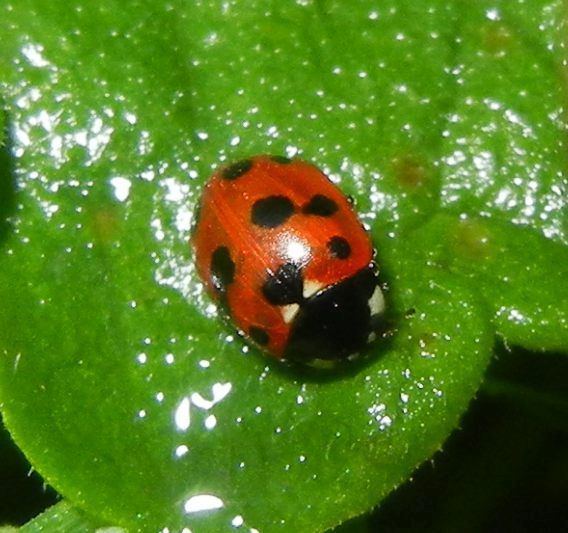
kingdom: Animalia
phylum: Arthropoda
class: Insecta
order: Coleoptera
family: Coccinellidae
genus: Coccinella
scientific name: Coccinella undecimpunctata
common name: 11-spot ladybird
